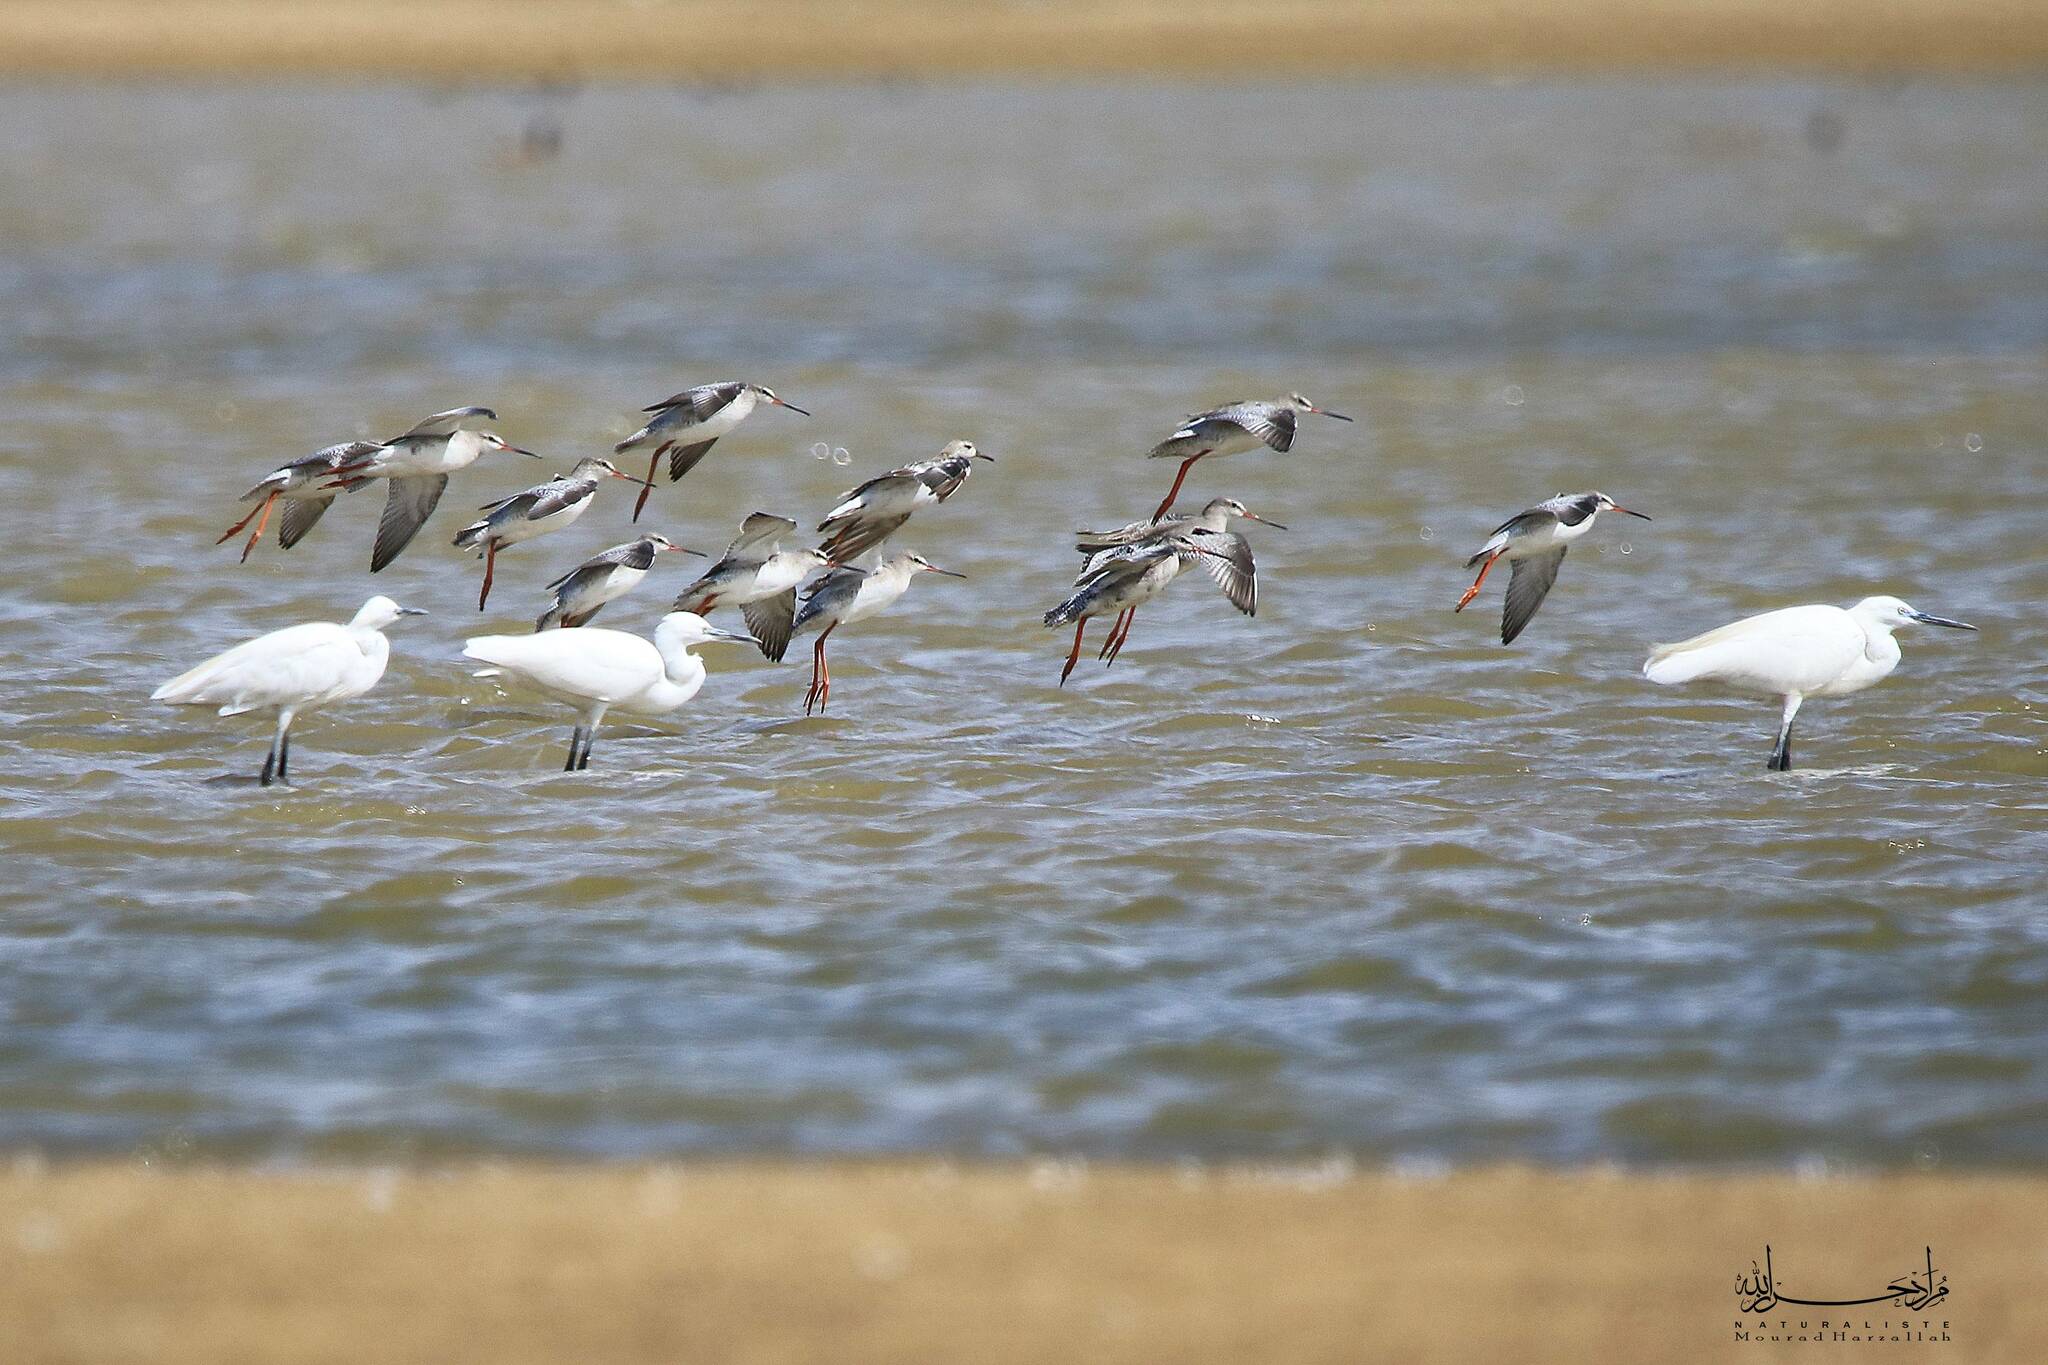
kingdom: Animalia
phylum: Chordata
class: Aves
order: Charadriiformes
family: Scolopacidae
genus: Tringa
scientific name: Tringa erythropus
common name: Spotted redshank
